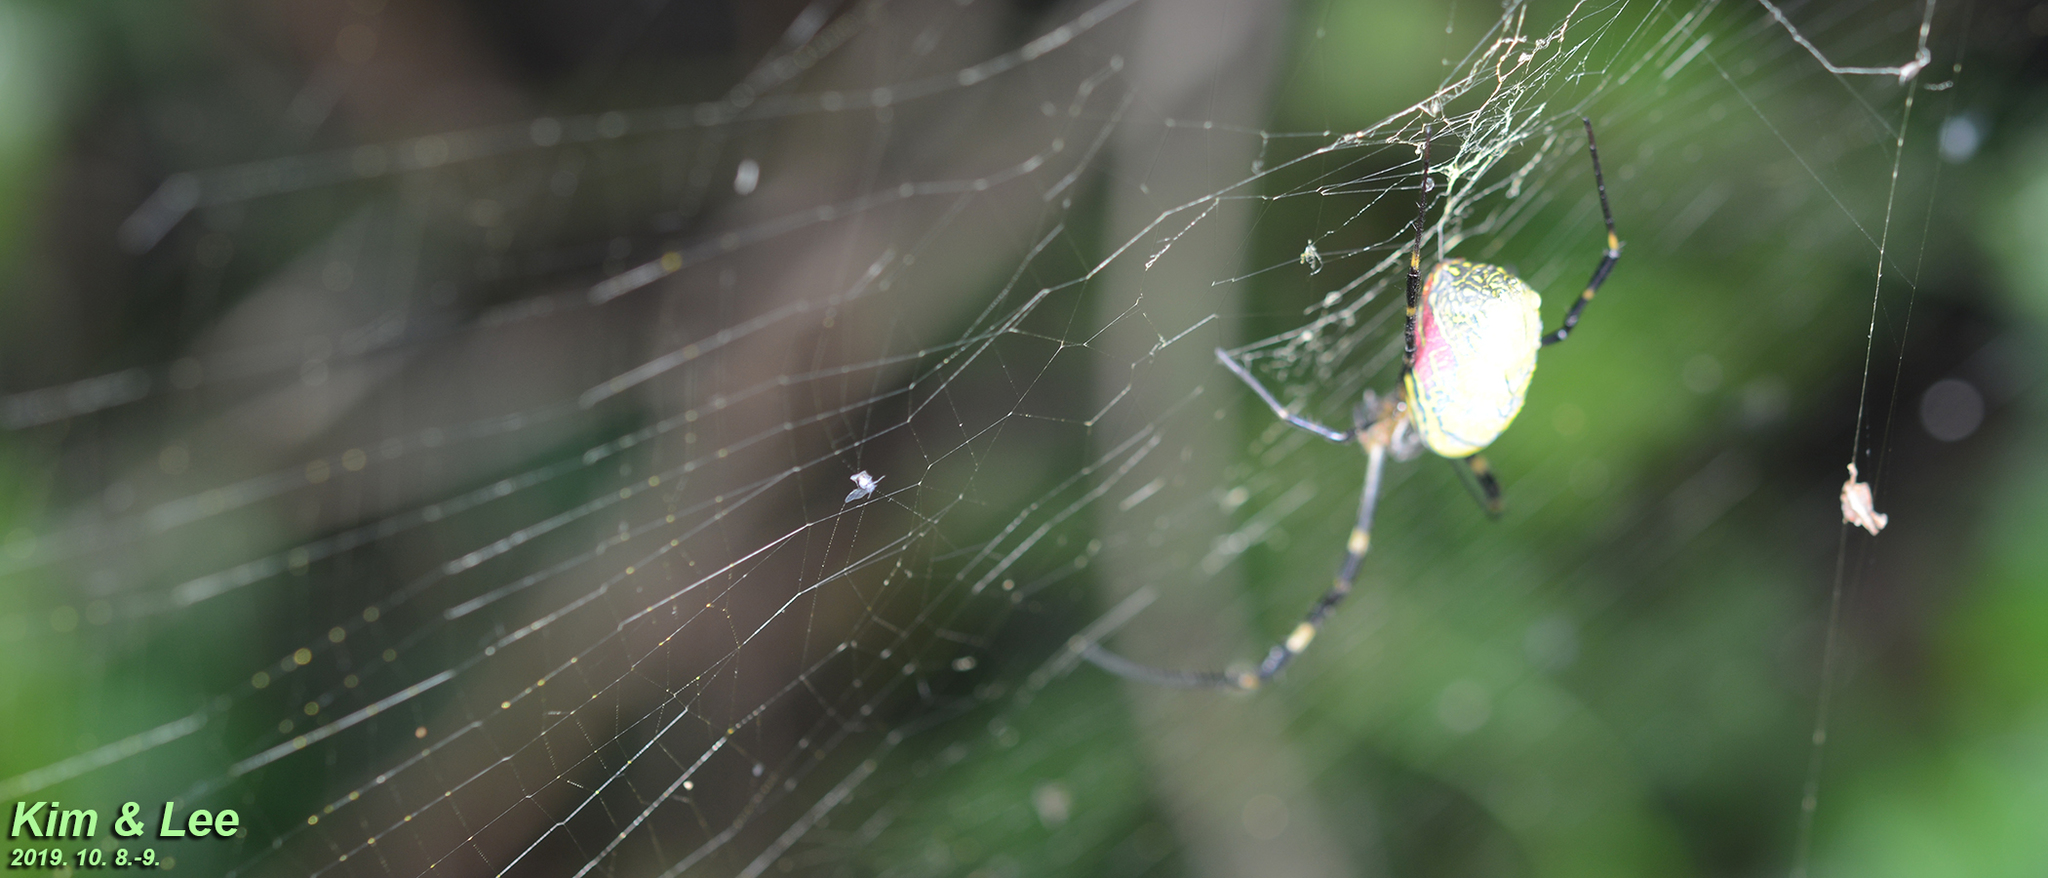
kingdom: Animalia
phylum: Arthropoda
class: Arachnida
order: Araneae
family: Araneidae
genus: Trichonephila
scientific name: Trichonephila clavata
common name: Jorō spider
